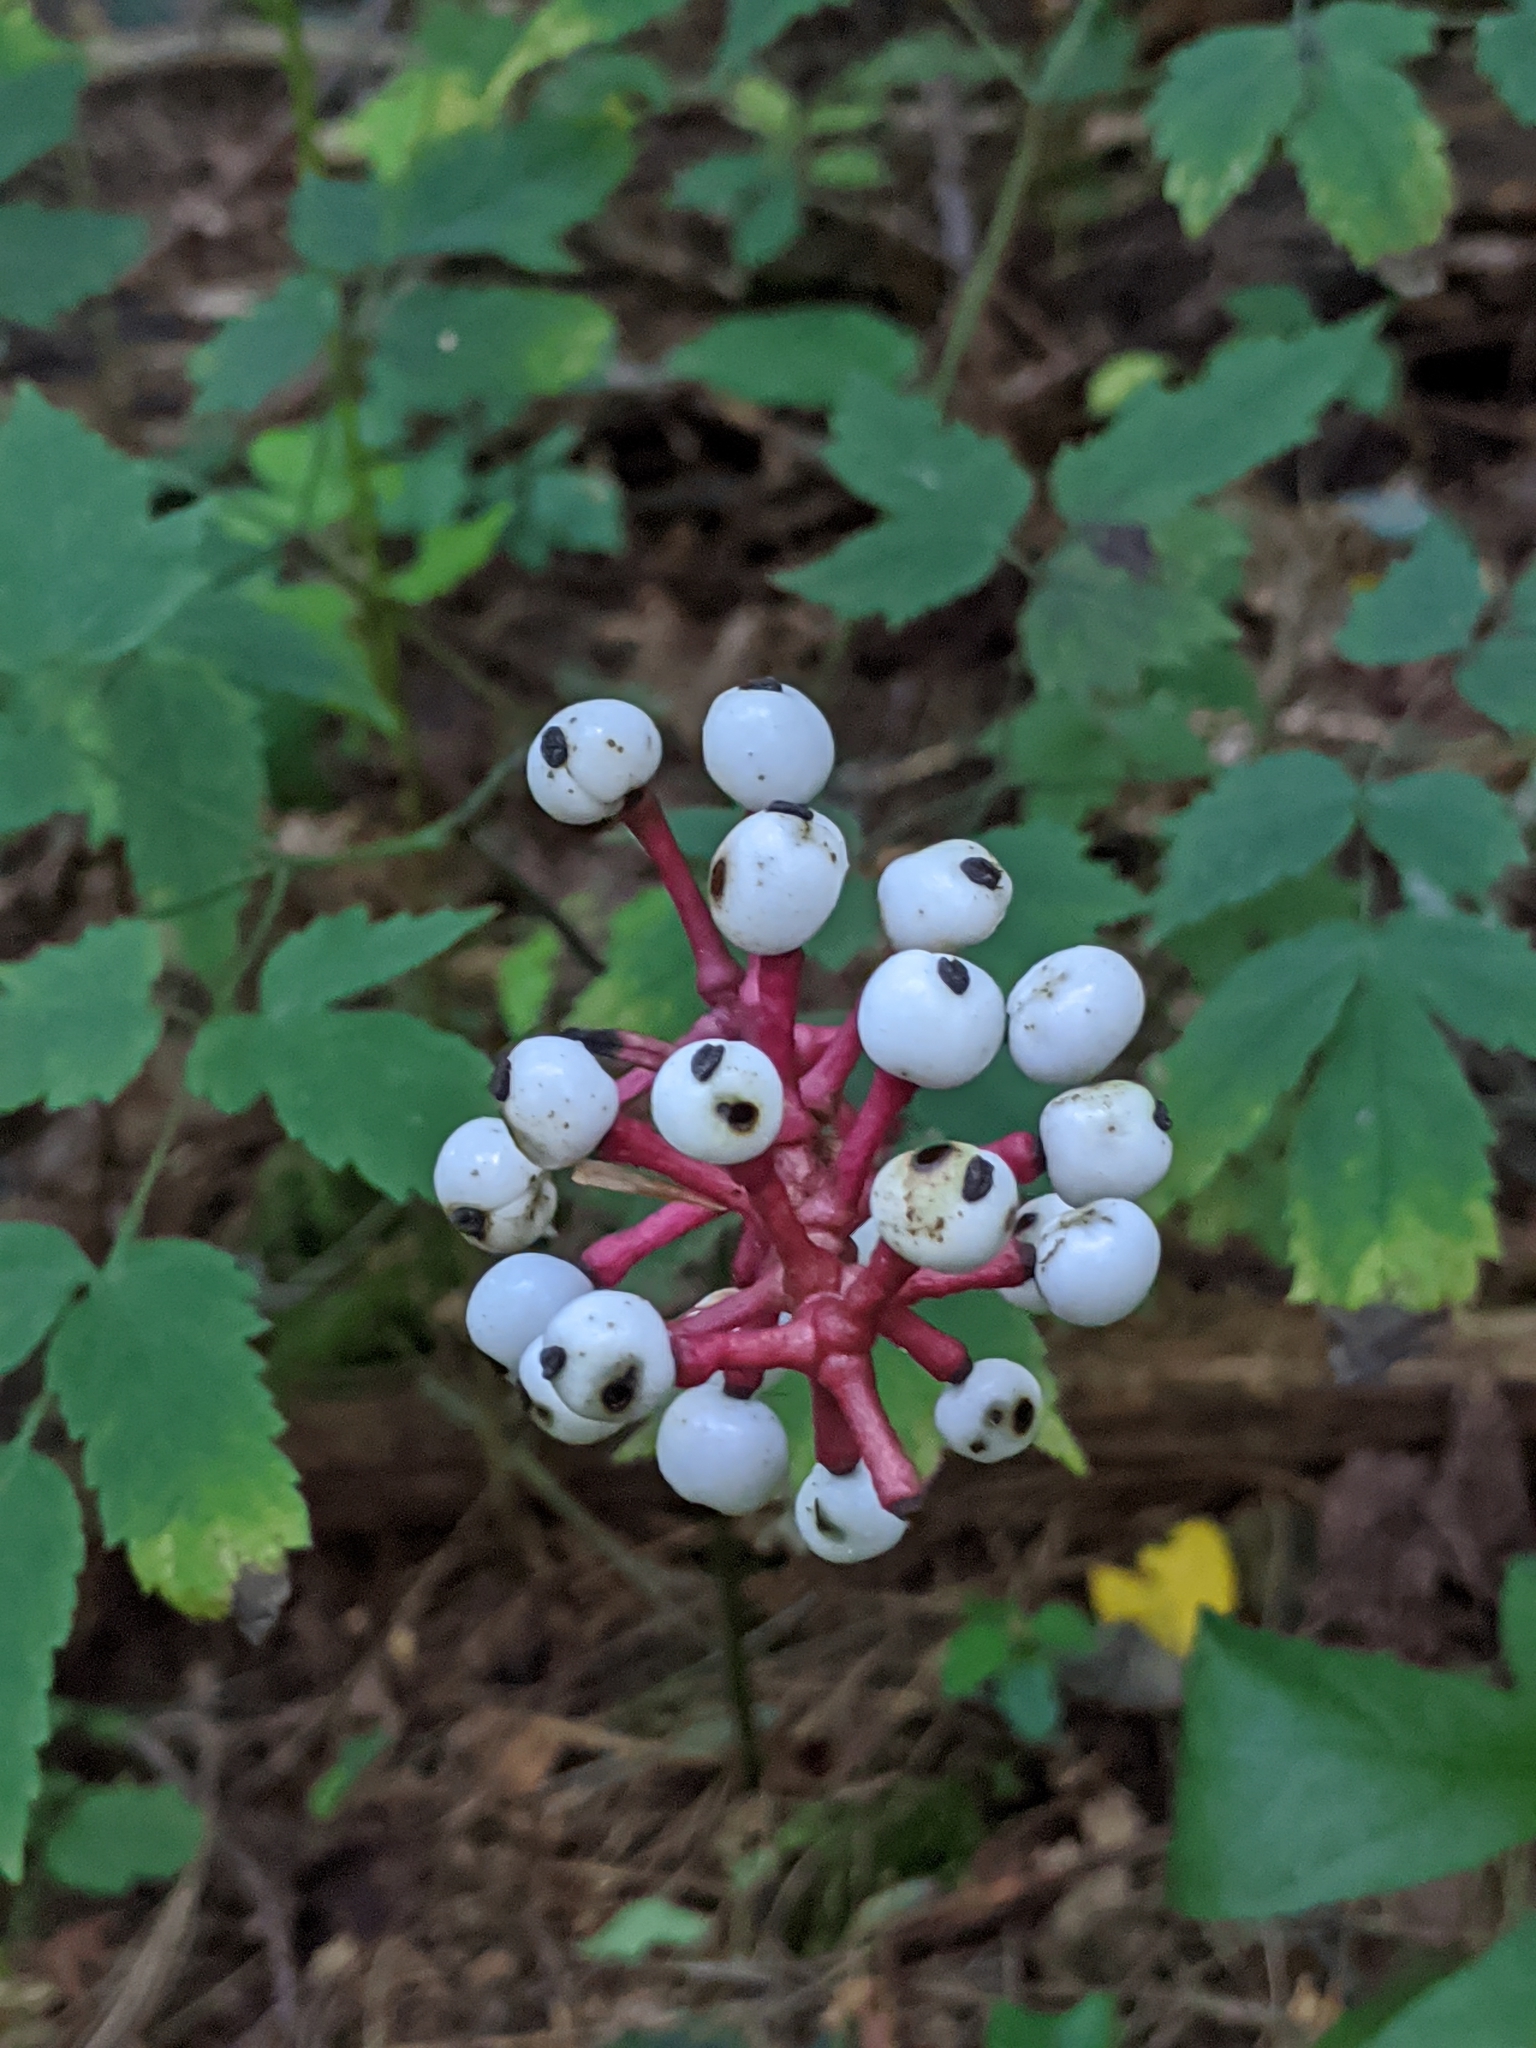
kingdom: Plantae
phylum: Tracheophyta
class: Magnoliopsida
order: Ranunculales
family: Ranunculaceae
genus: Actaea
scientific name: Actaea pachypoda
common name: Doll's-eyes
